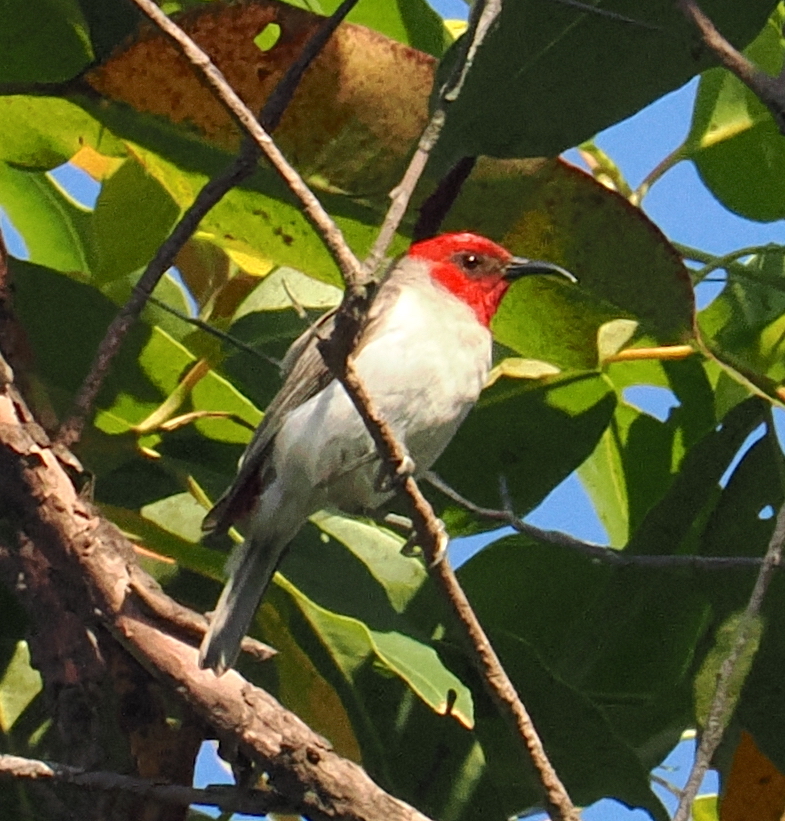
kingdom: Animalia
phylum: Chordata
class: Aves
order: Passeriformes
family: Meliphagidae
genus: Myzomela
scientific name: Myzomela prawiradilagae
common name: Alor myzomela
